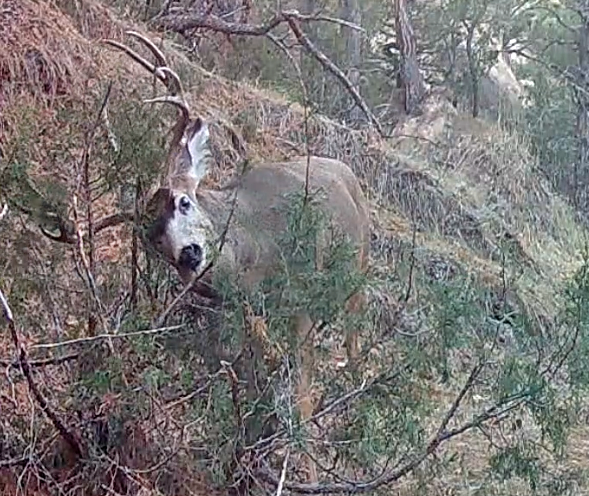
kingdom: Animalia
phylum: Chordata
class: Mammalia
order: Artiodactyla
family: Cervidae
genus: Odocoileus
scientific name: Odocoileus hemionus
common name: Mule deer
